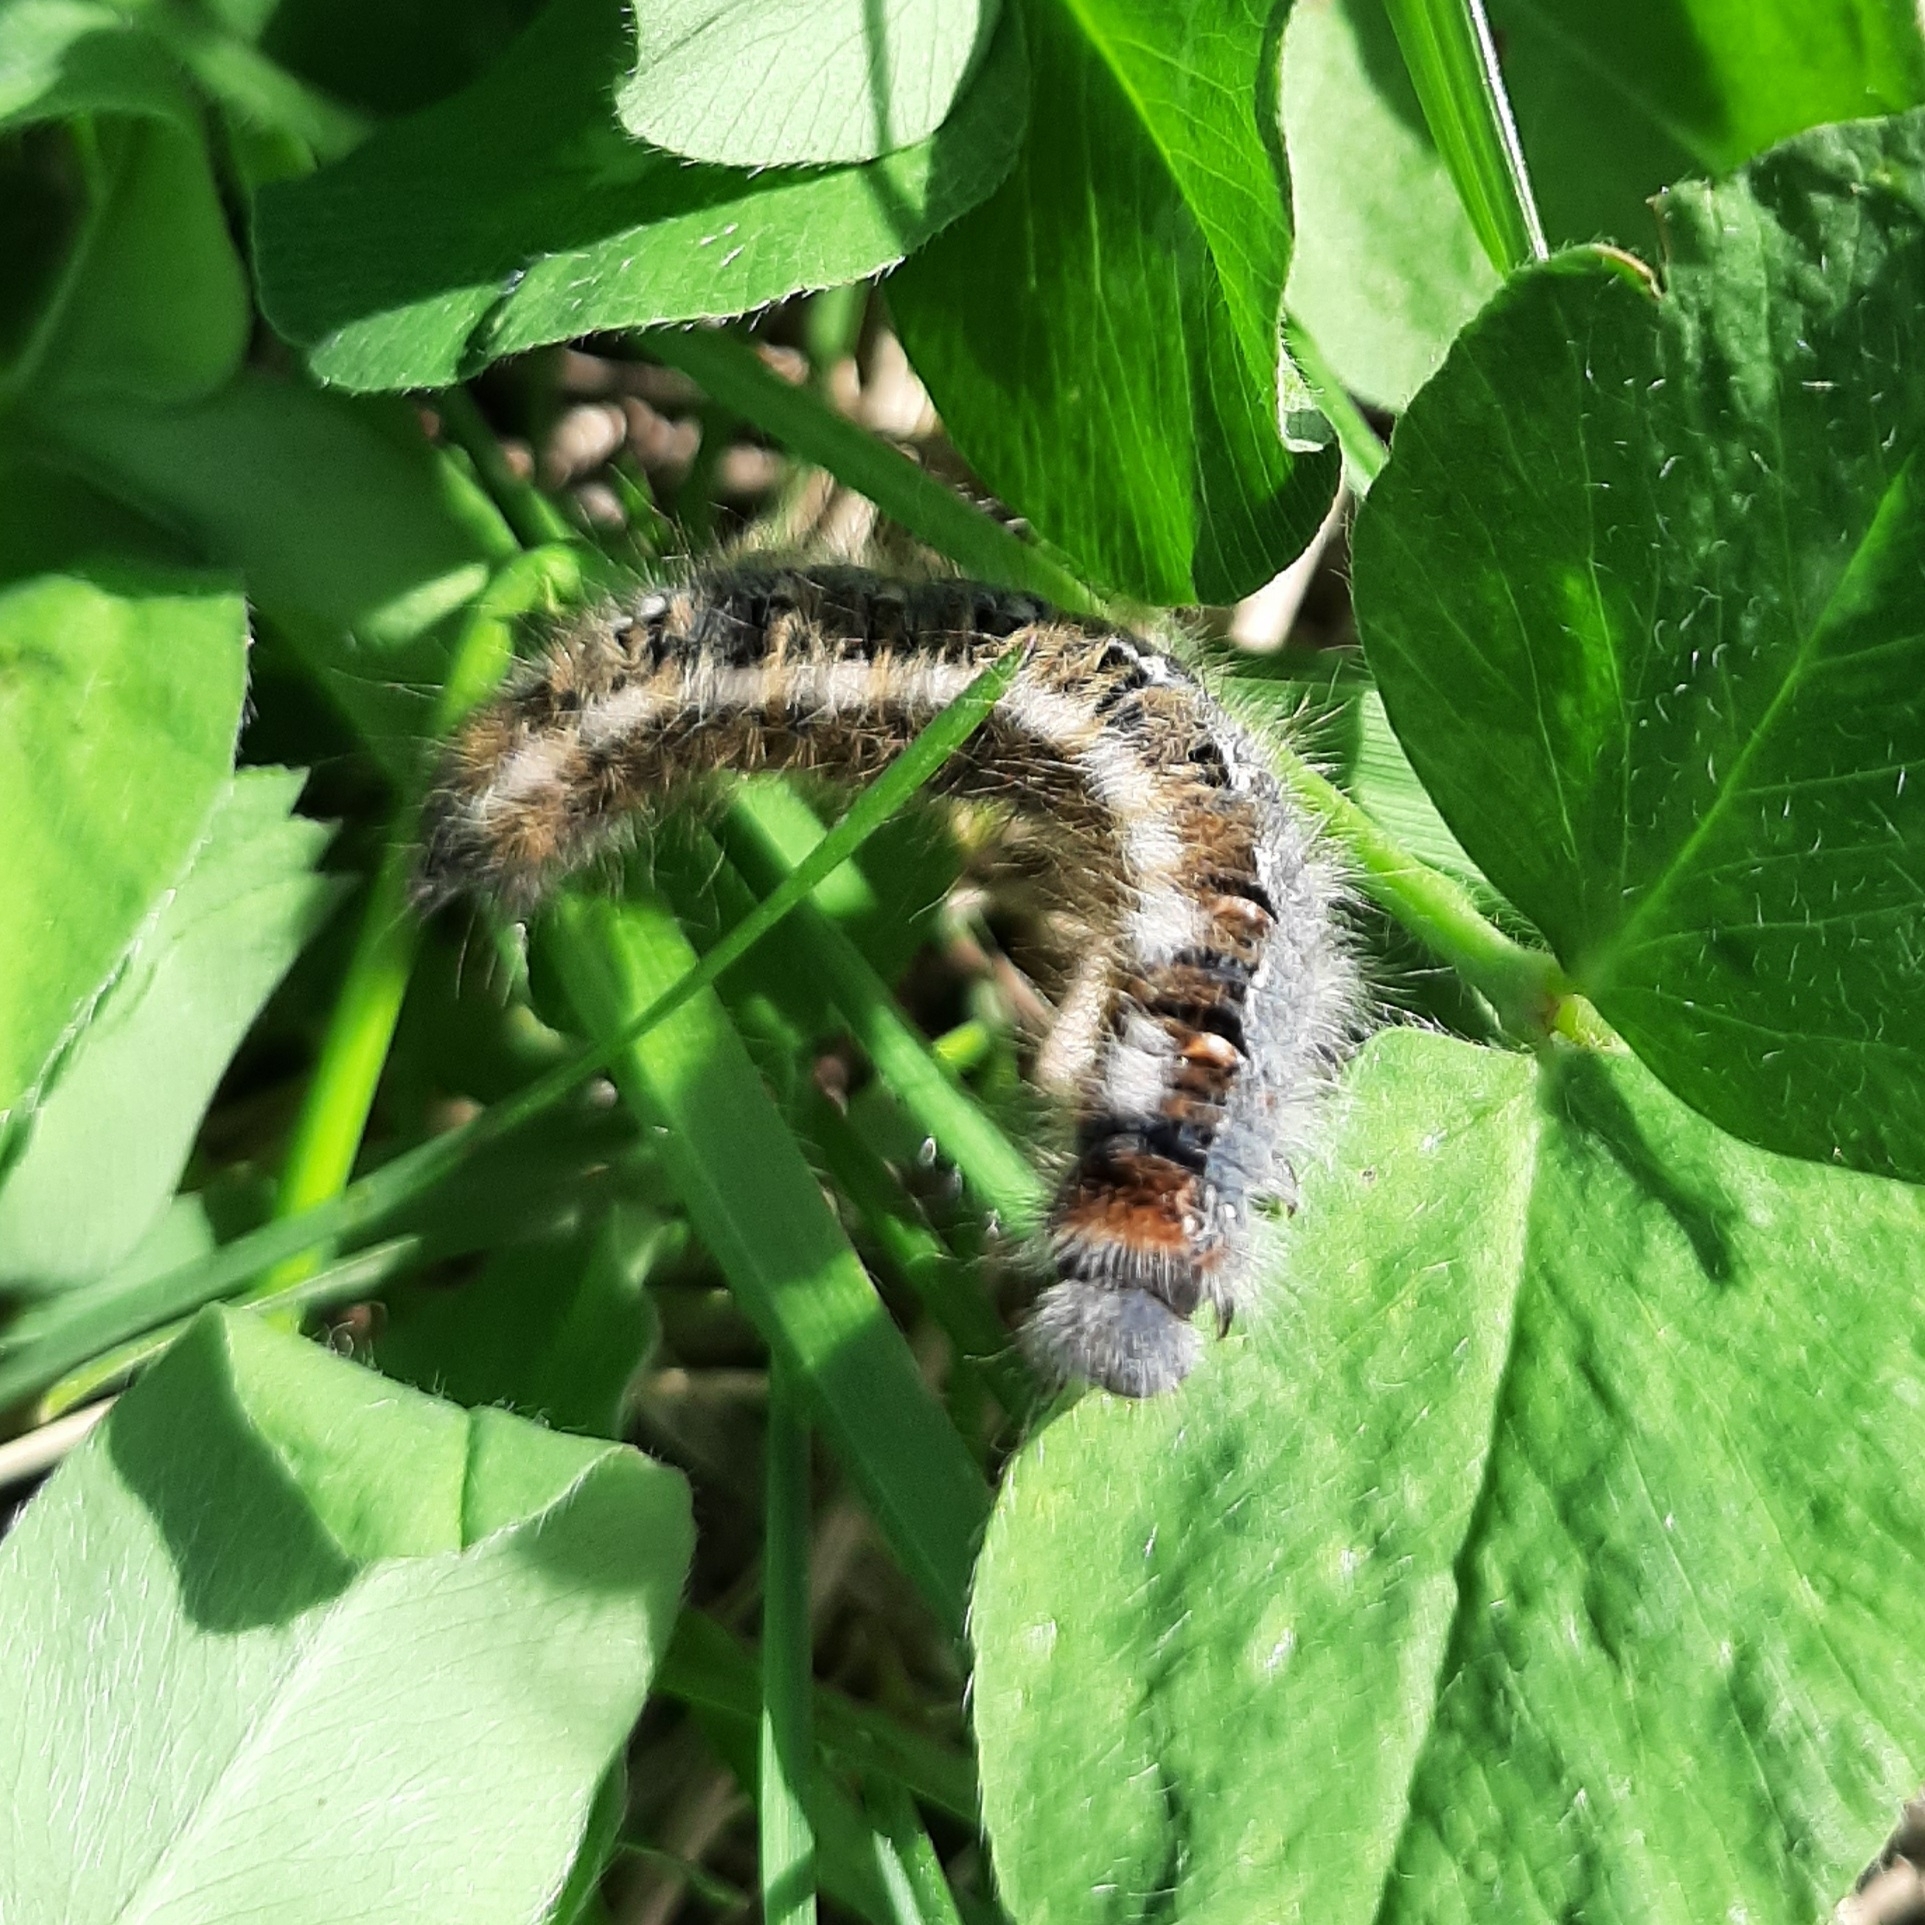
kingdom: Animalia
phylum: Arthropoda
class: Insecta
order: Lepidoptera
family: Lasiocampidae
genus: Lasiocampa
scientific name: Lasiocampa quercus
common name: Oak eggar
